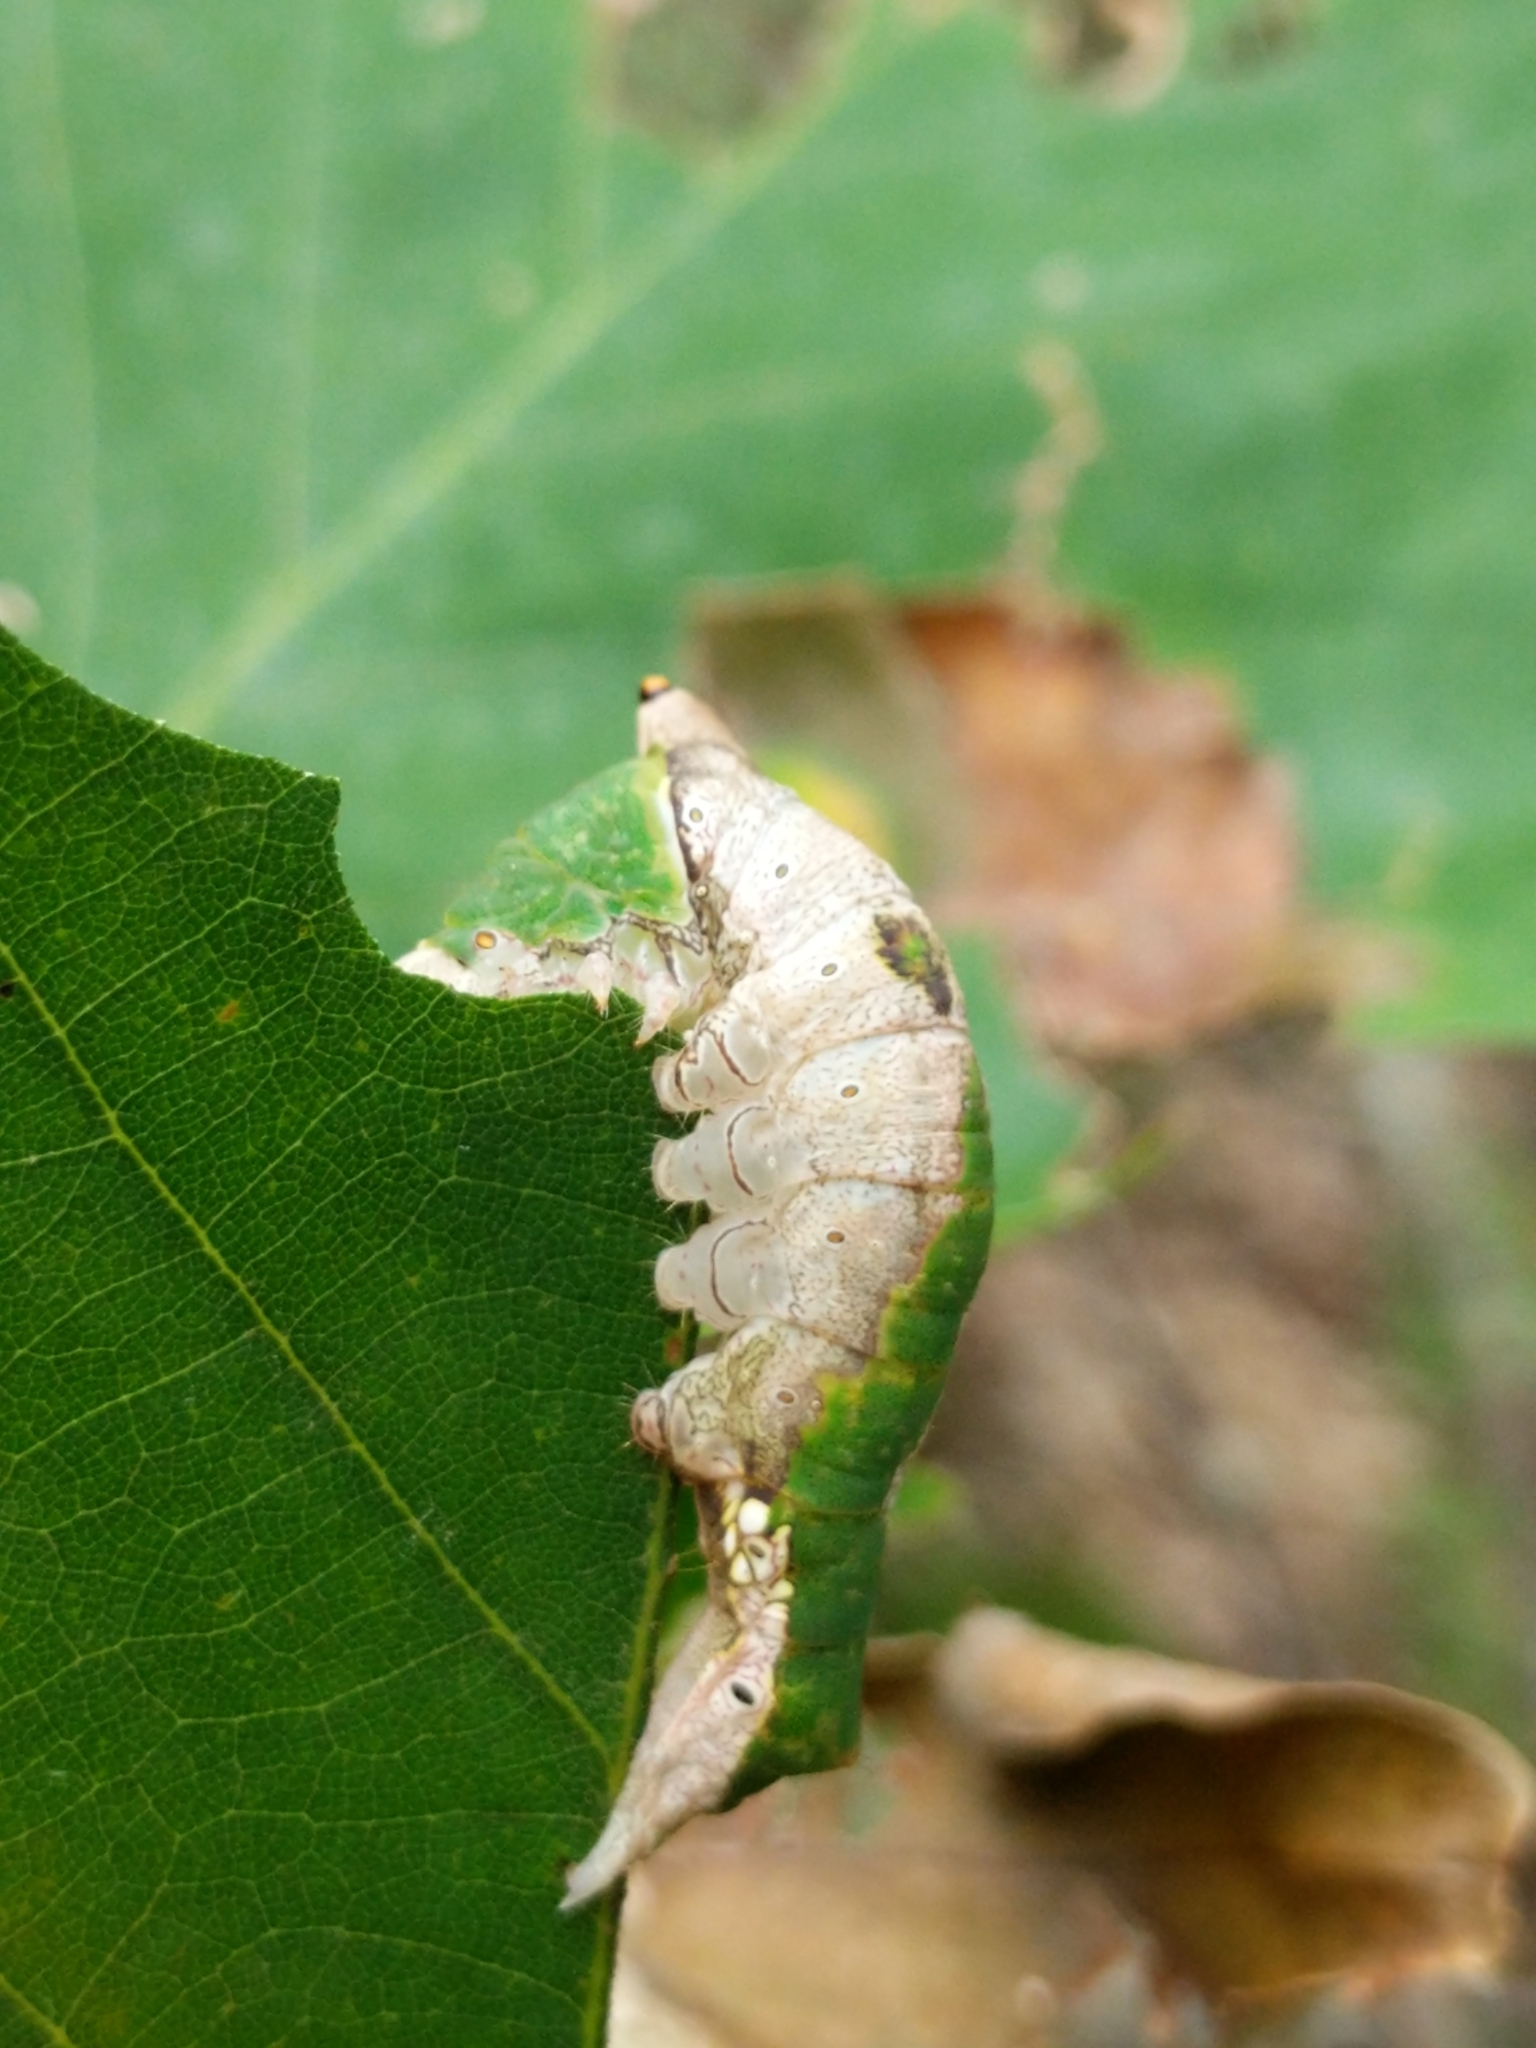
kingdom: Animalia
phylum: Arthropoda
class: Insecta
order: Lepidoptera
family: Notodontidae
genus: Oligocentria
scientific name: Oligocentria Ianassa lignicolor
